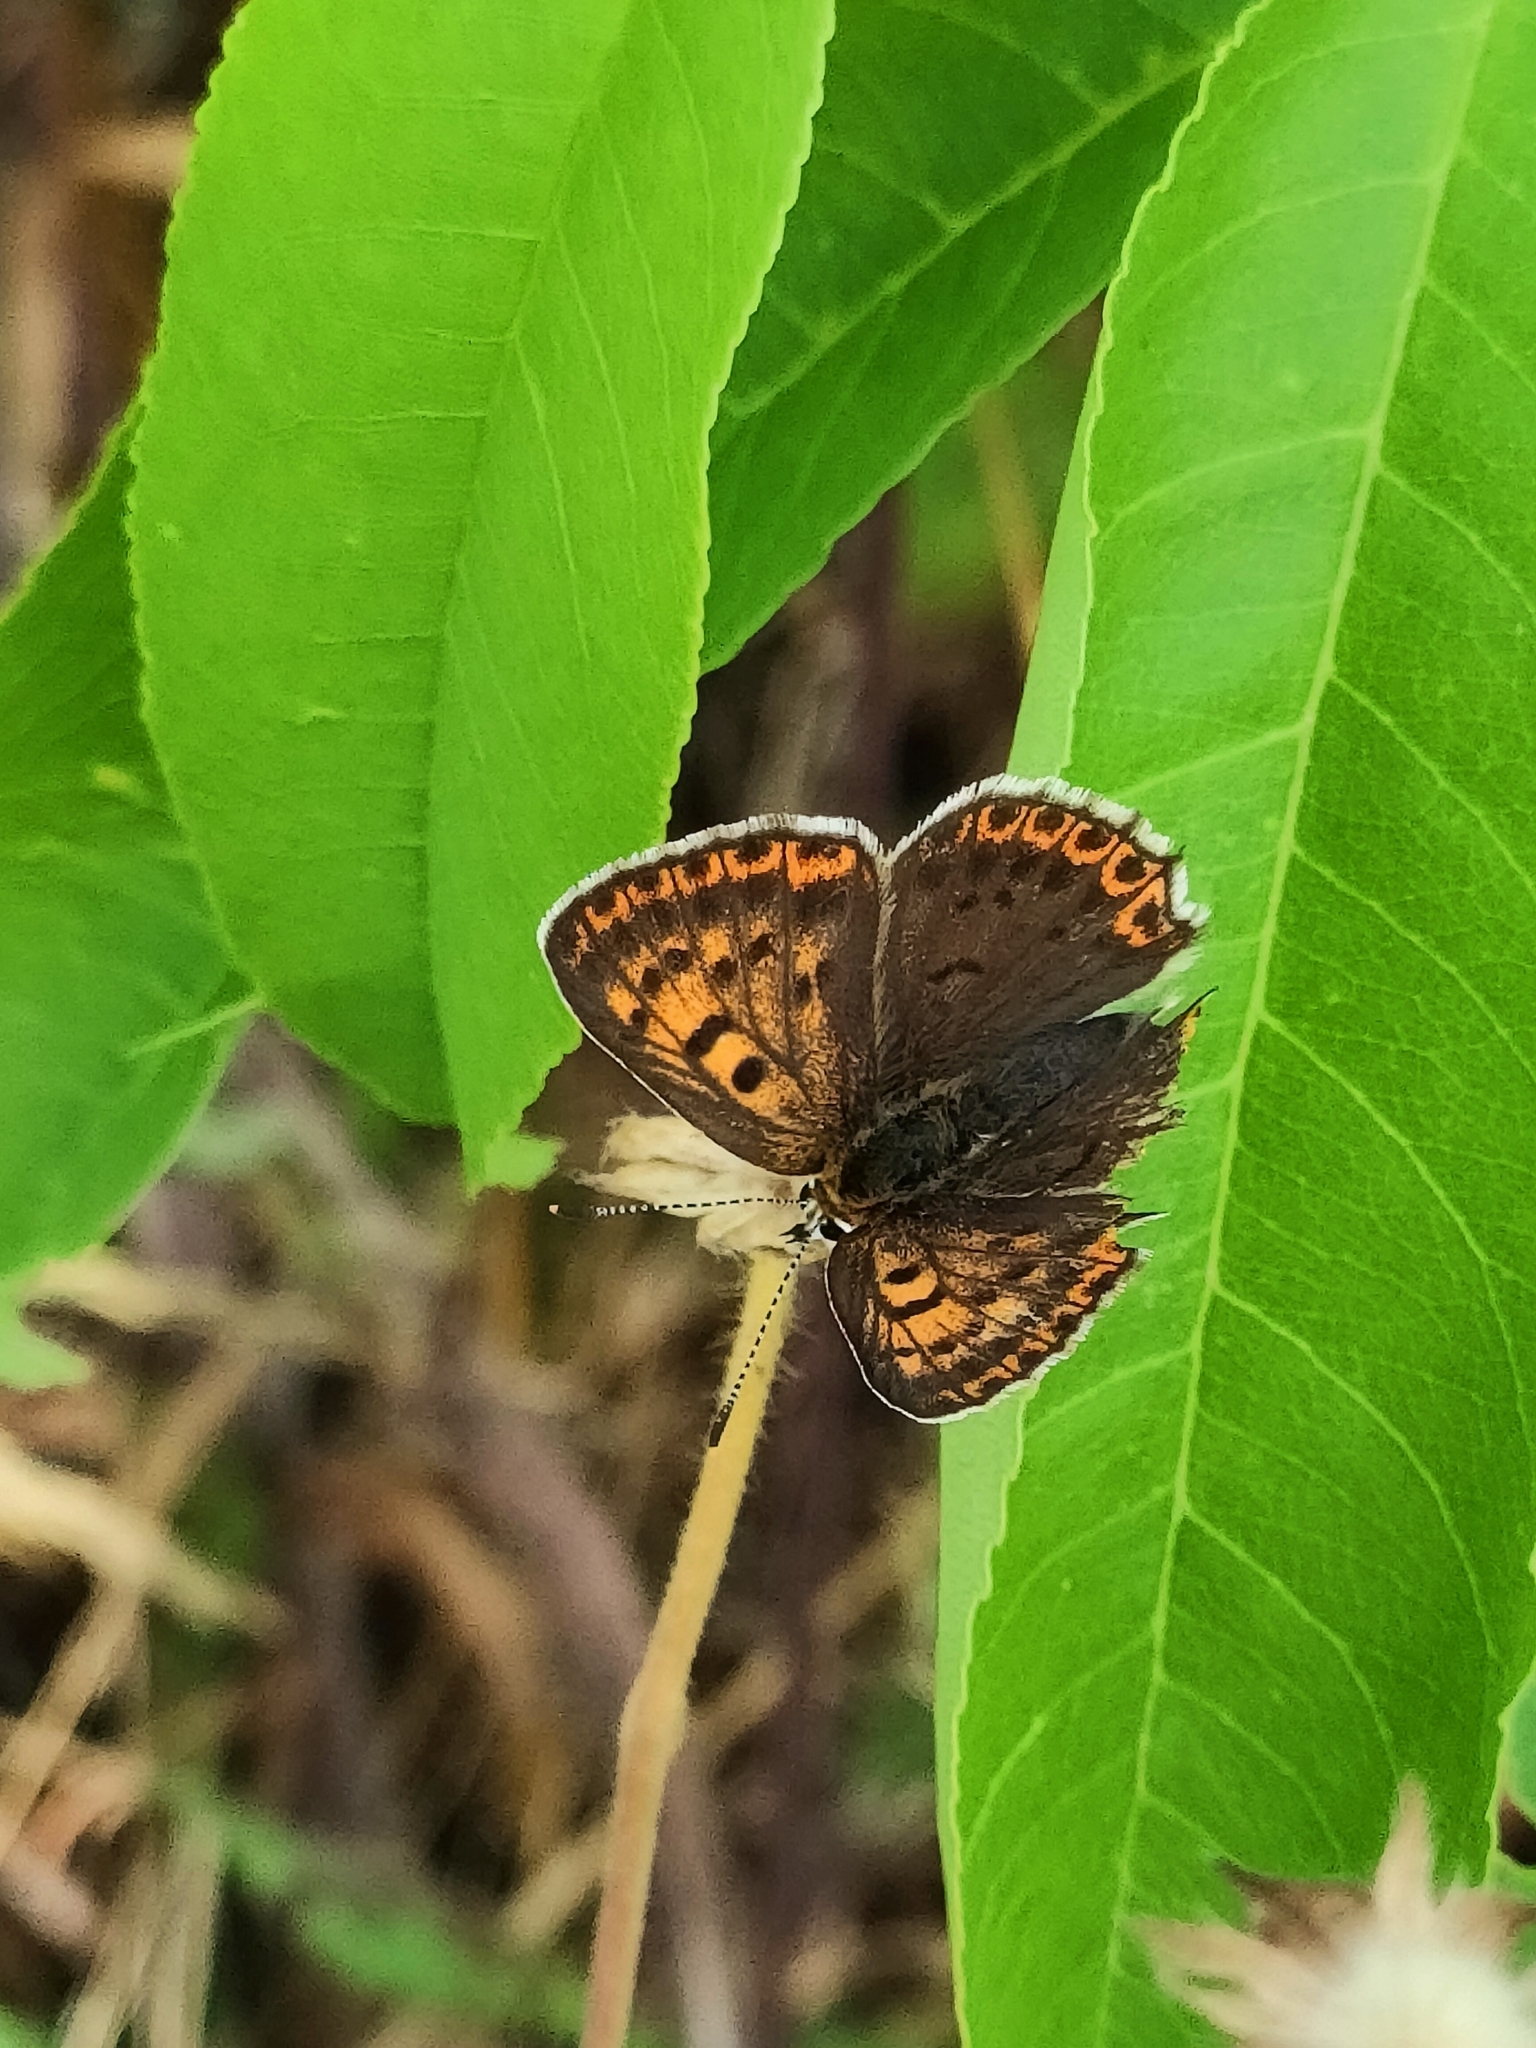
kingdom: Animalia
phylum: Arthropoda
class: Insecta
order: Lepidoptera
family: Lycaenidae
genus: Loweia
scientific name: Loweia tityrus
